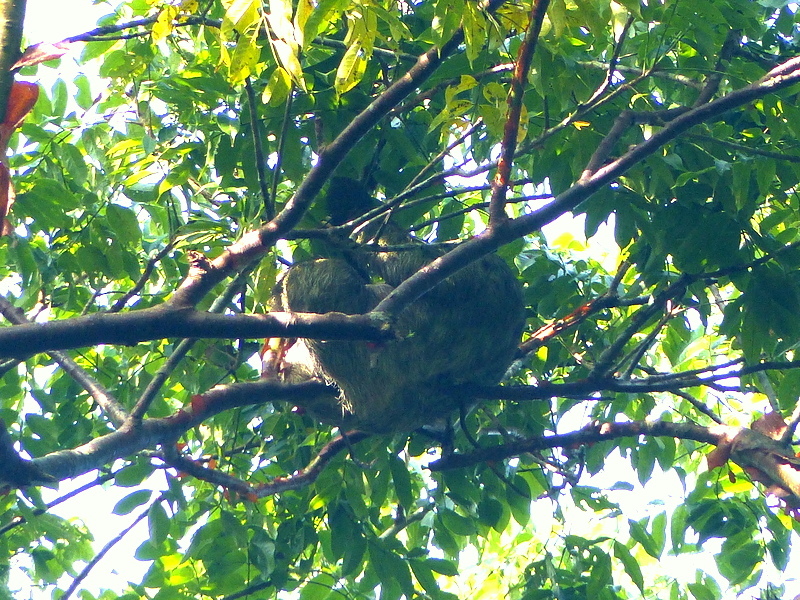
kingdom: Animalia
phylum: Chordata
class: Mammalia
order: Pilosa
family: Bradypodidae
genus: Bradypus
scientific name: Bradypus variegatus
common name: Brown-throated three-toed sloth
